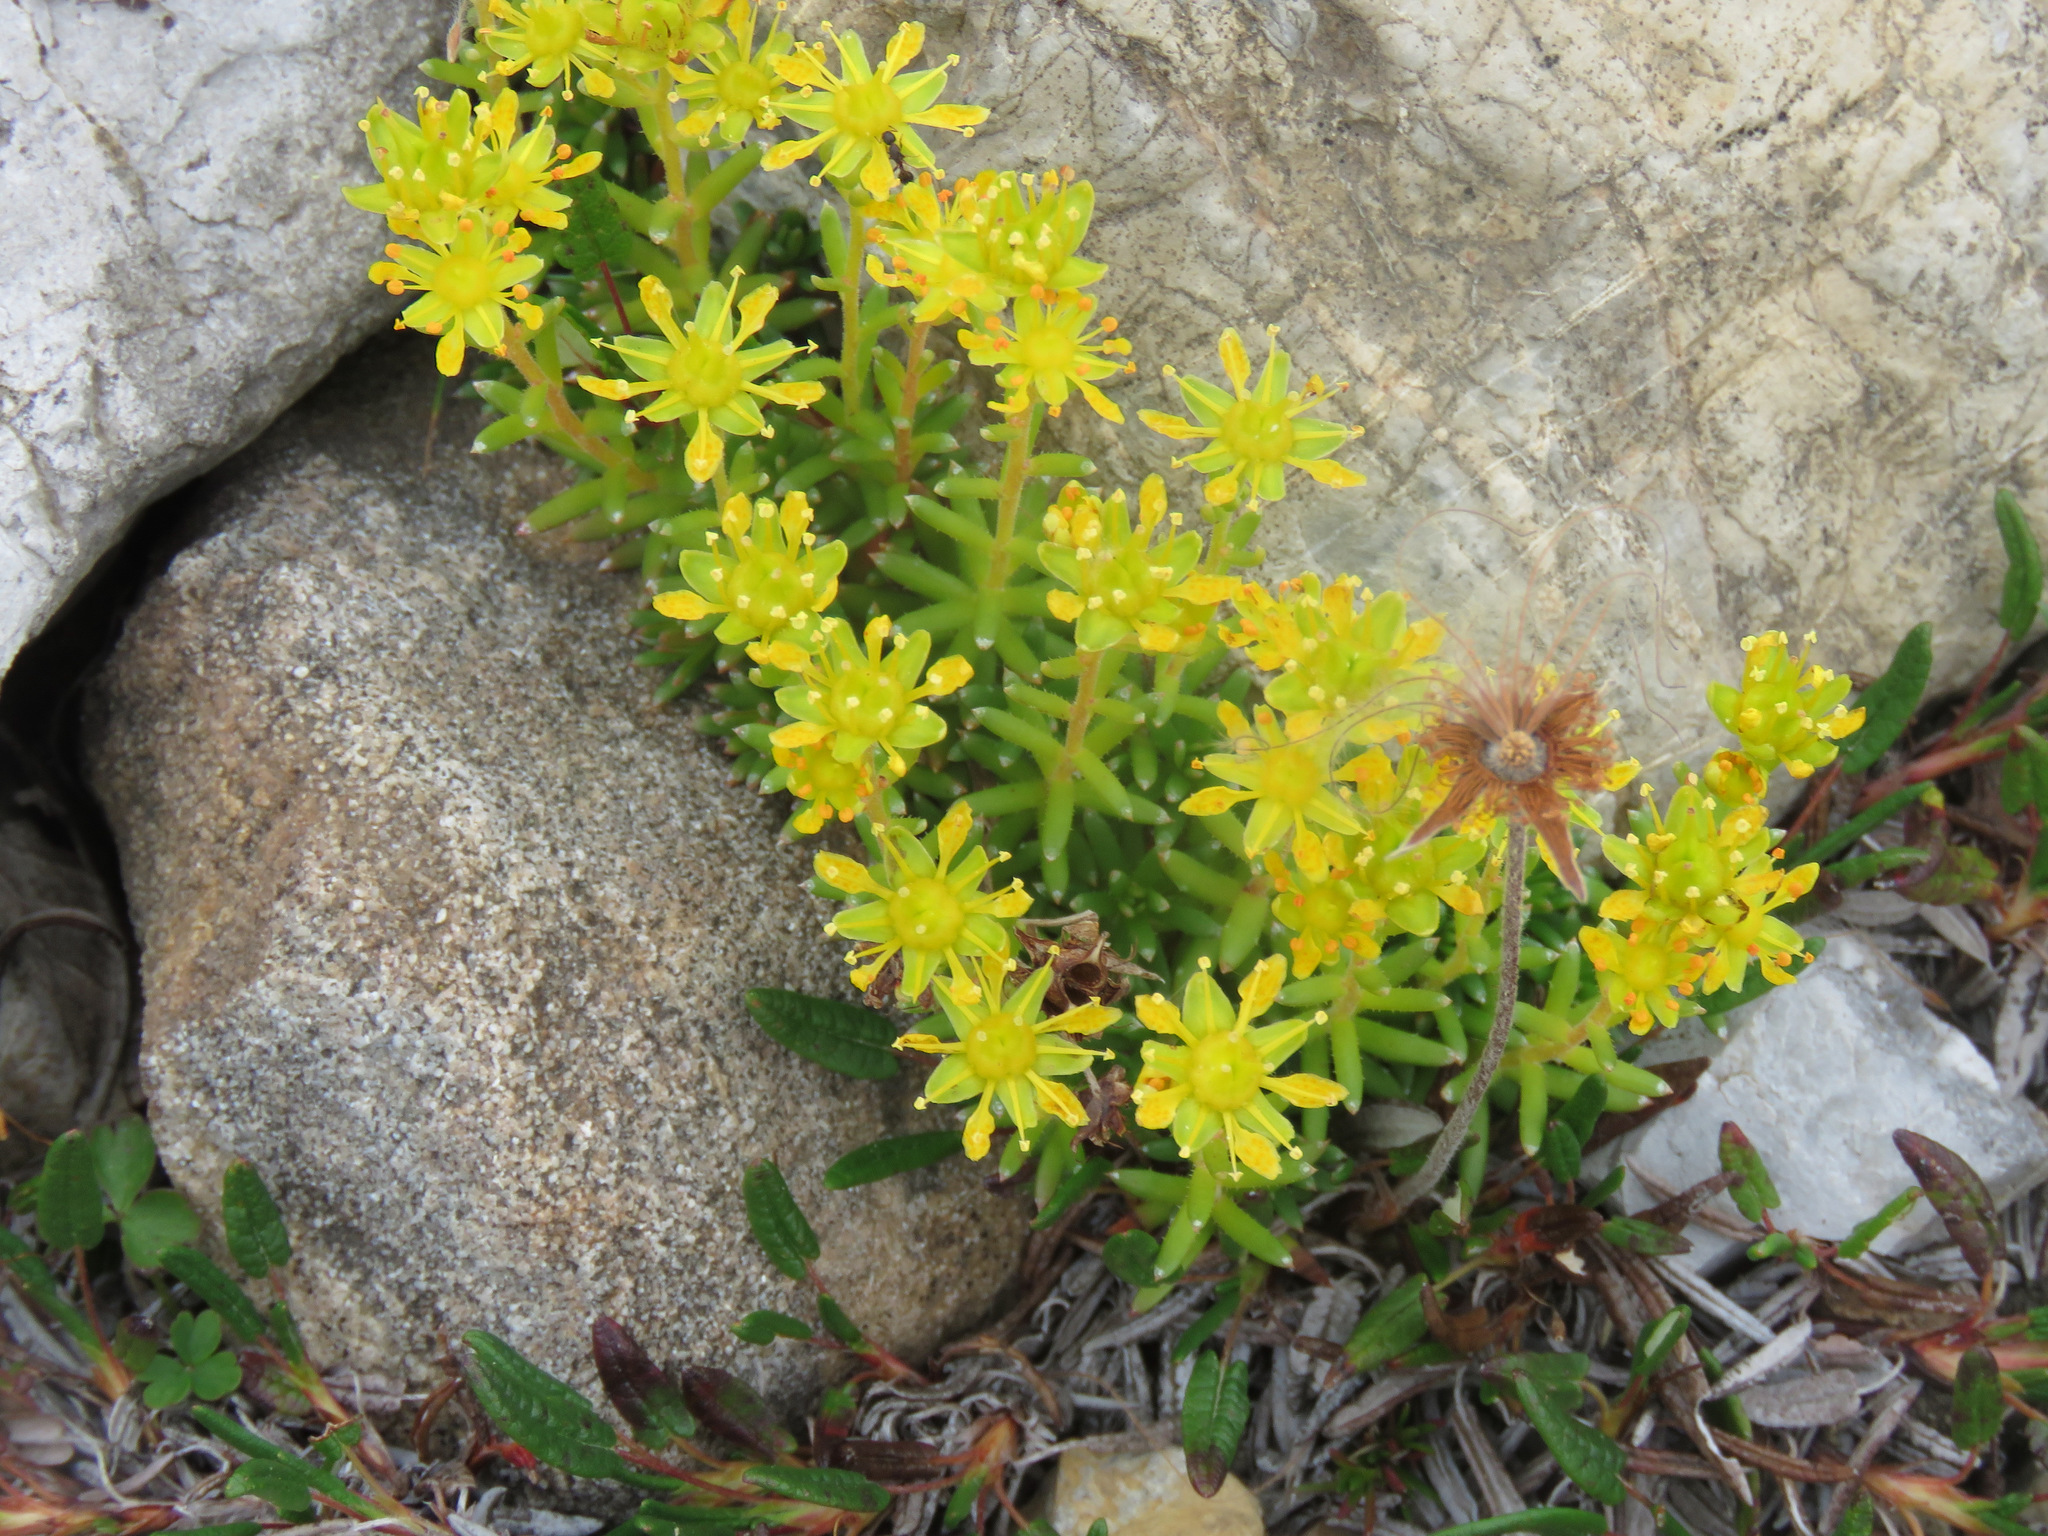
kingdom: Plantae
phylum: Tracheophyta
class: Magnoliopsida
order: Saxifragales
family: Saxifragaceae
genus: Saxifraga
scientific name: Saxifraga aizoides
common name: Yellow mountain saxifrage
